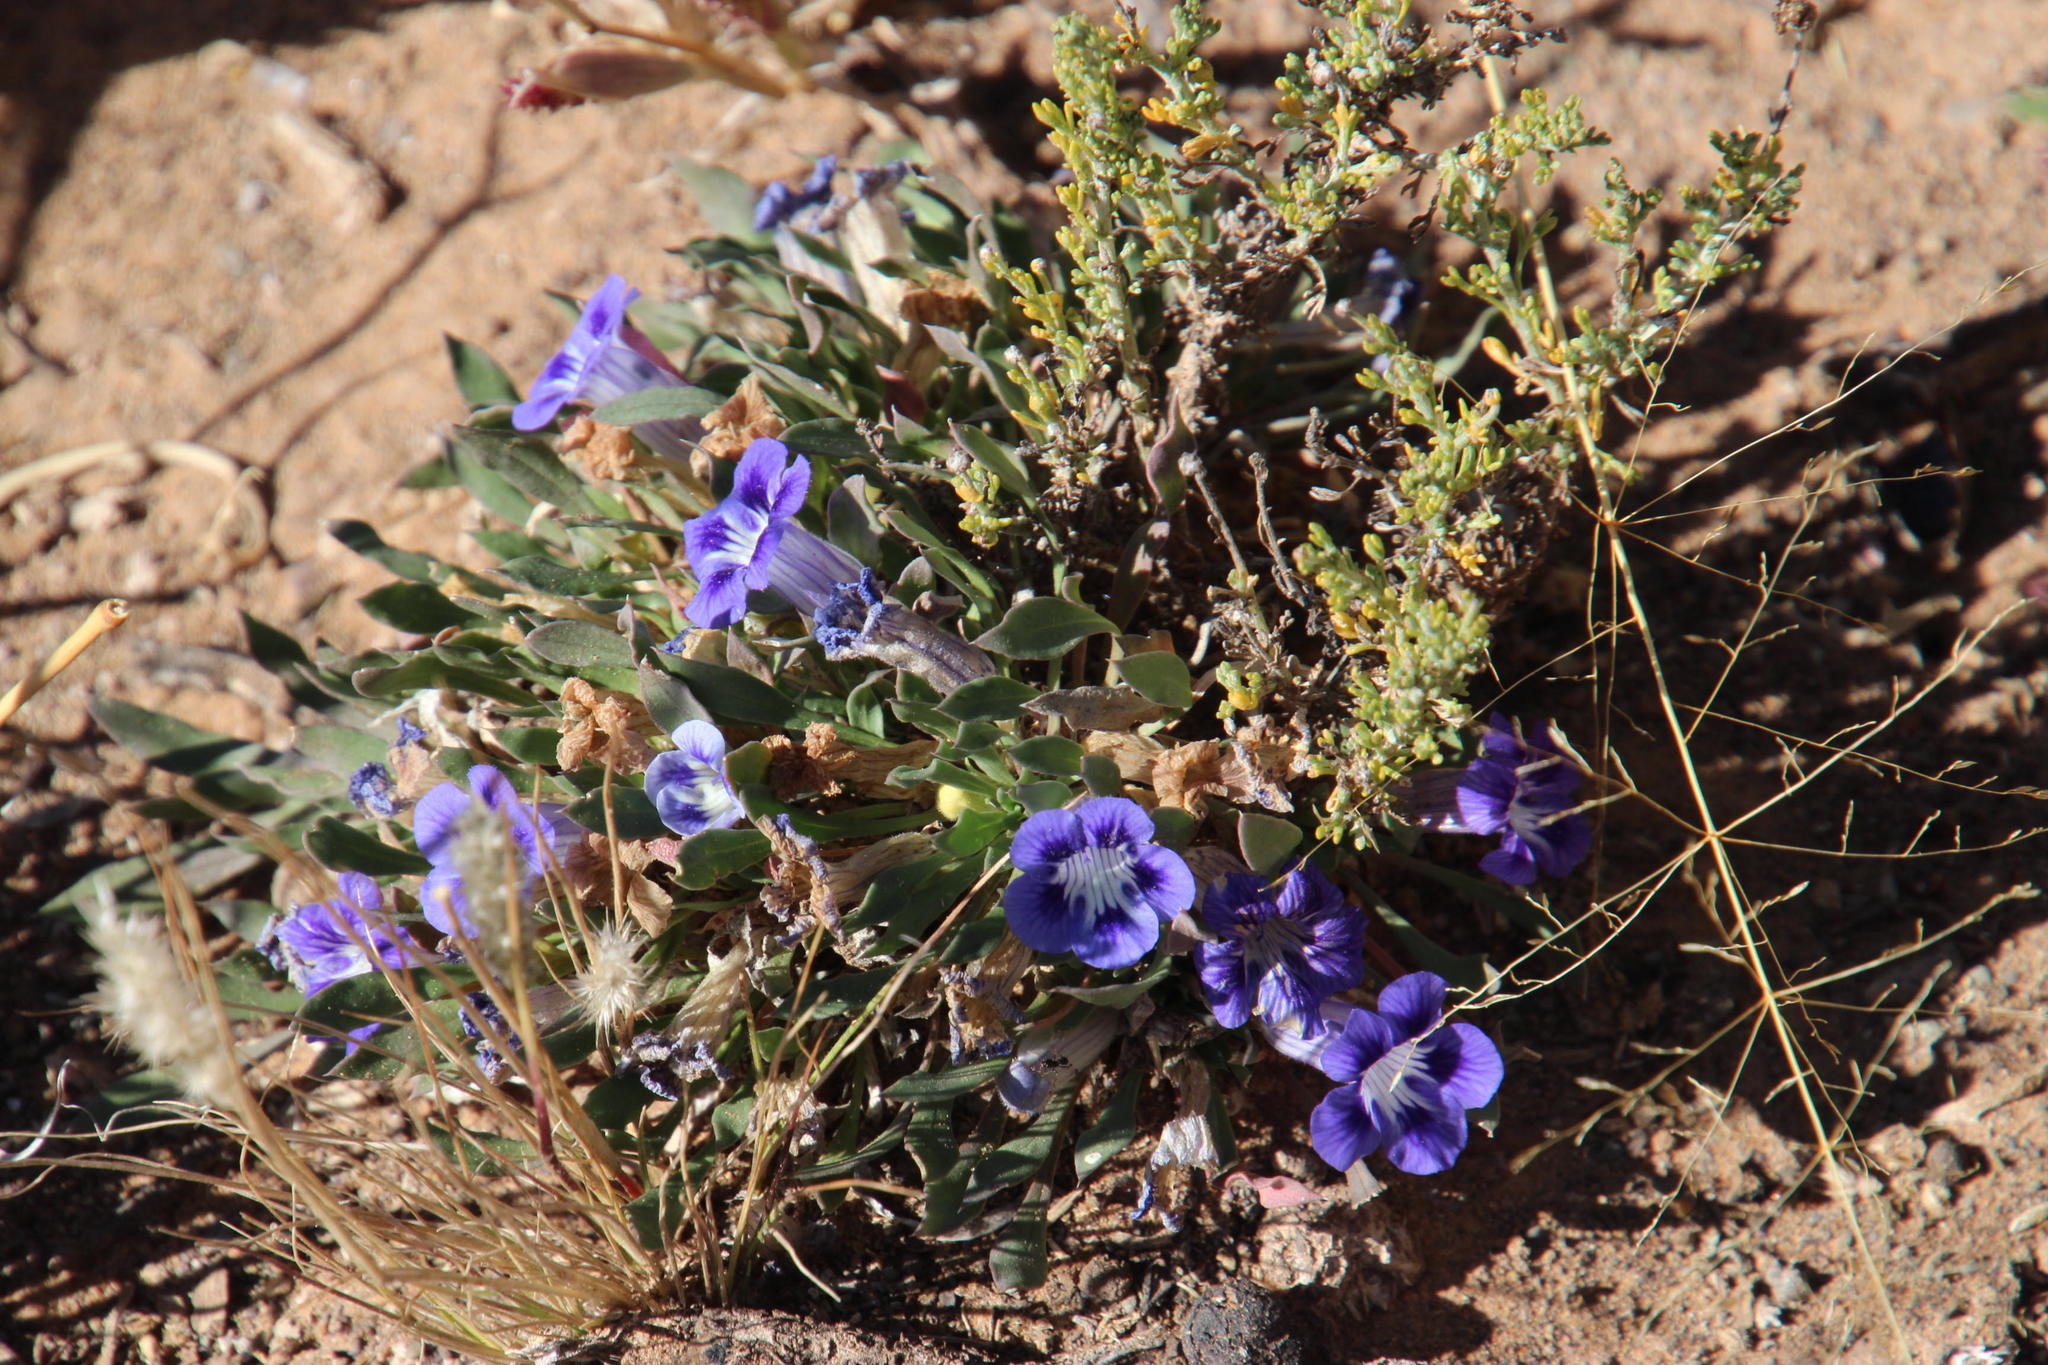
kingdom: Plantae
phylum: Tracheophyta
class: Magnoliopsida
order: Lamiales
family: Scrophulariaceae
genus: Aptosimum
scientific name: Aptosimum indivisum
